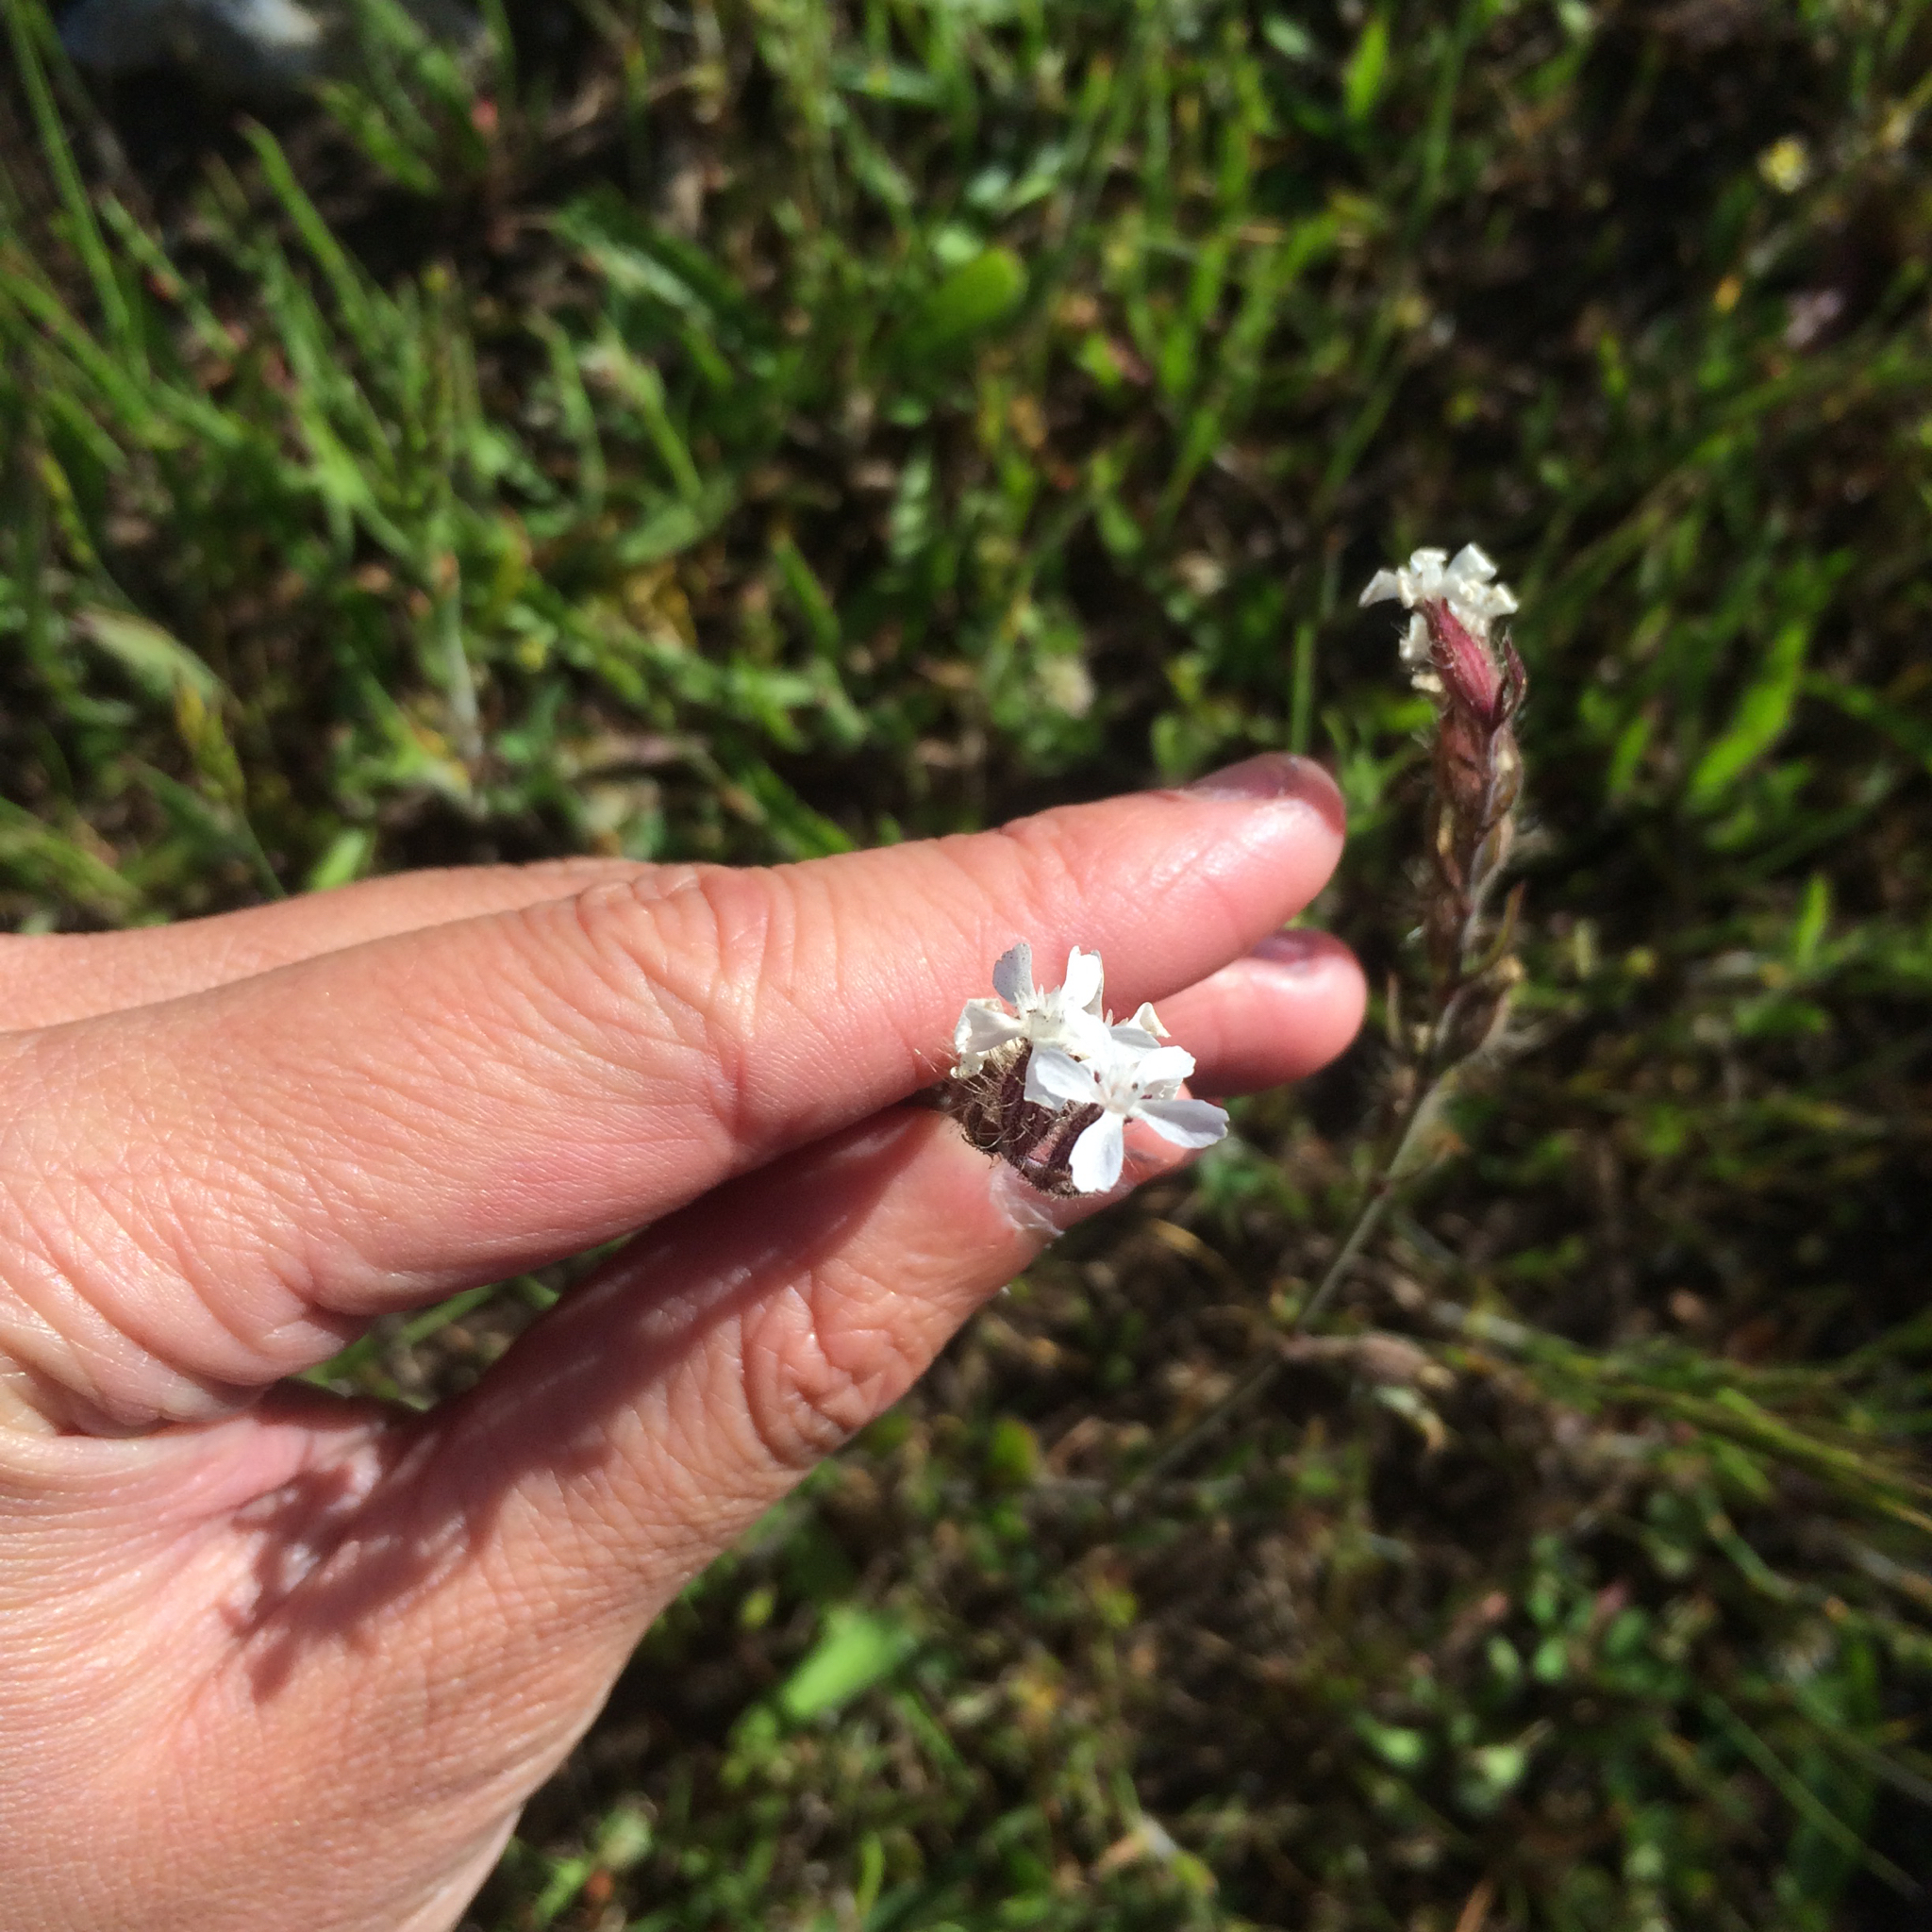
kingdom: Plantae
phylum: Tracheophyta
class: Magnoliopsida
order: Caryophyllales
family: Caryophyllaceae
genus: Silene
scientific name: Silene gallica
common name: Small-flowered catchfly
